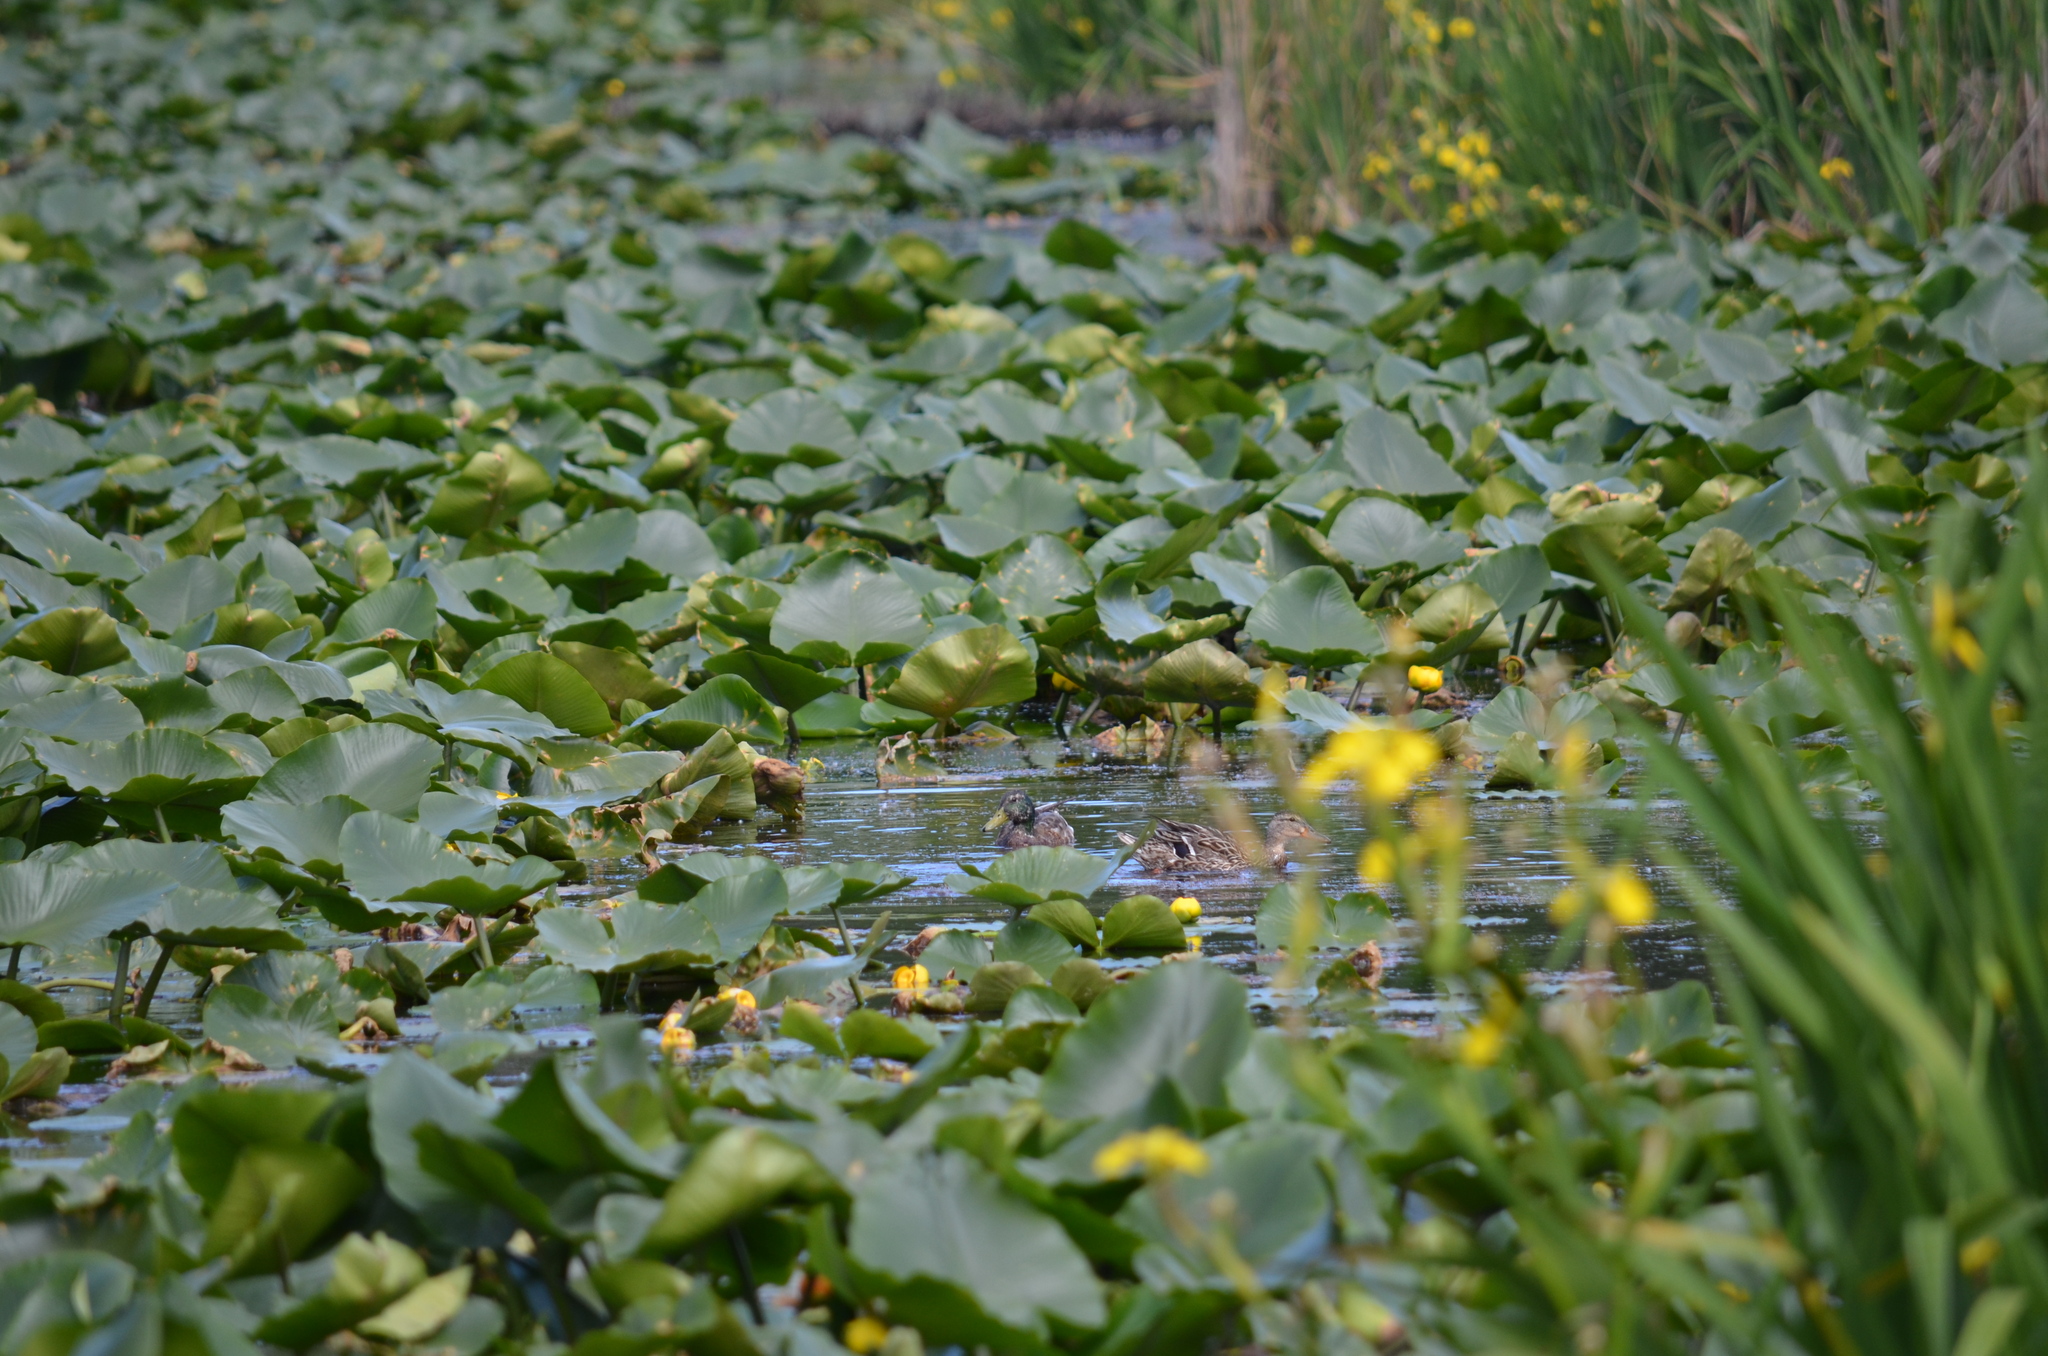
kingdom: Animalia
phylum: Chordata
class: Aves
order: Anseriformes
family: Anatidae
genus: Anas
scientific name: Anas platyrhynchos
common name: Mallard
